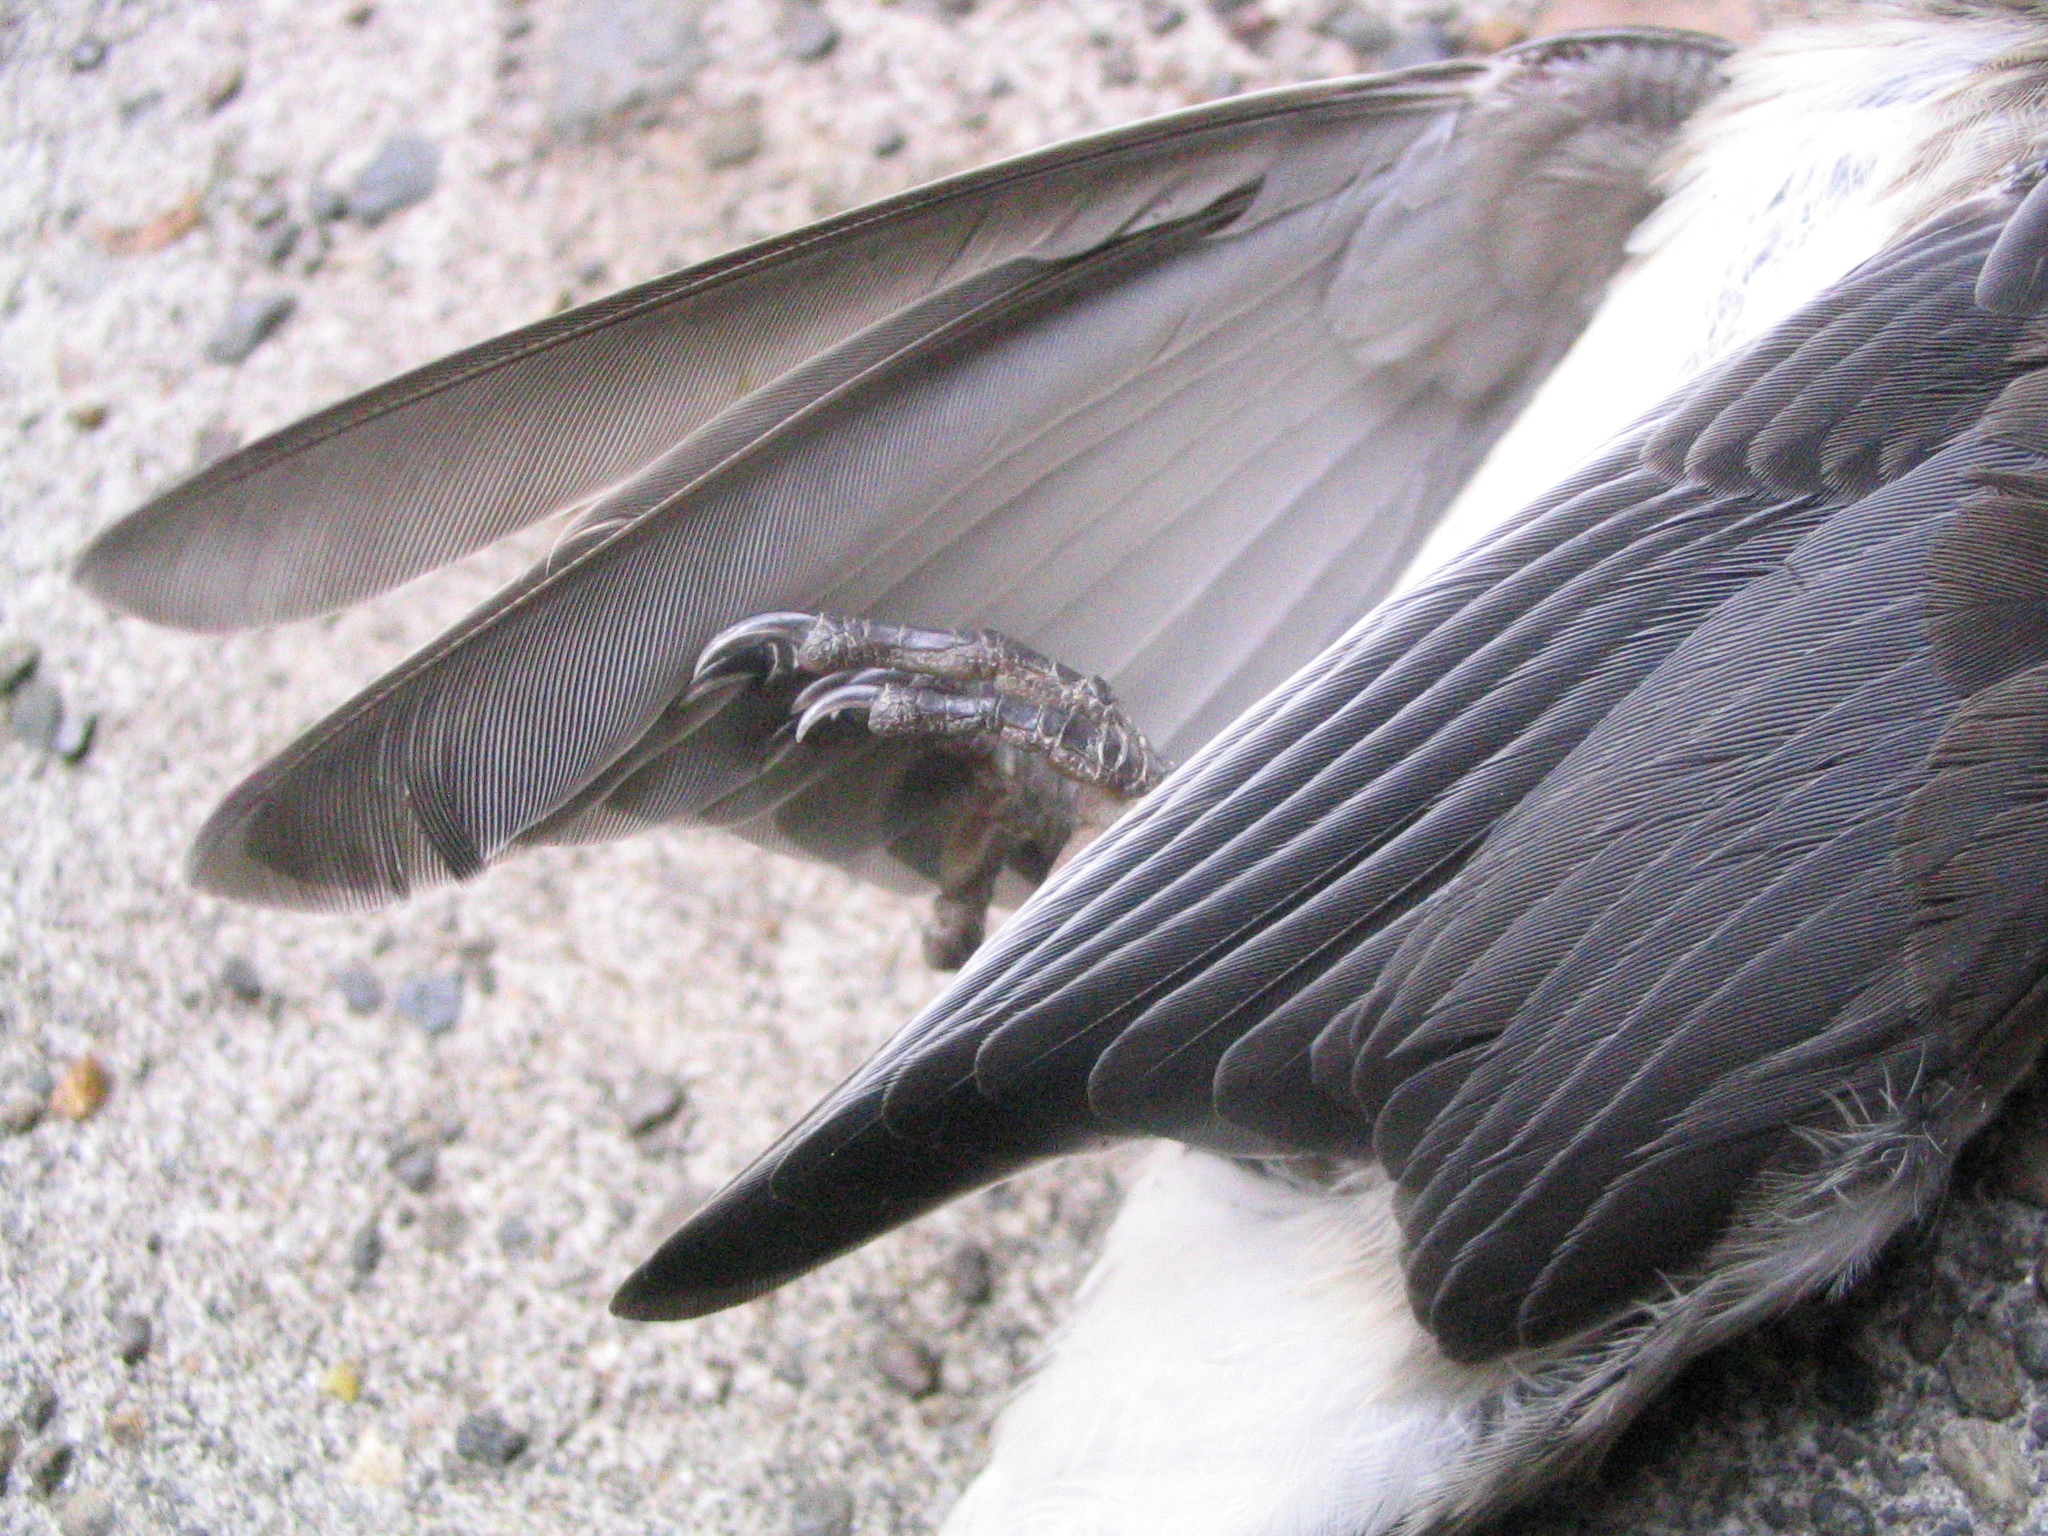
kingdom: Animalia
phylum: Chordata
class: Aves
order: Passeriformes
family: Bombycillidae
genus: Bombycilla
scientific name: Bombycilla cedrorum
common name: Cedar waxwing
